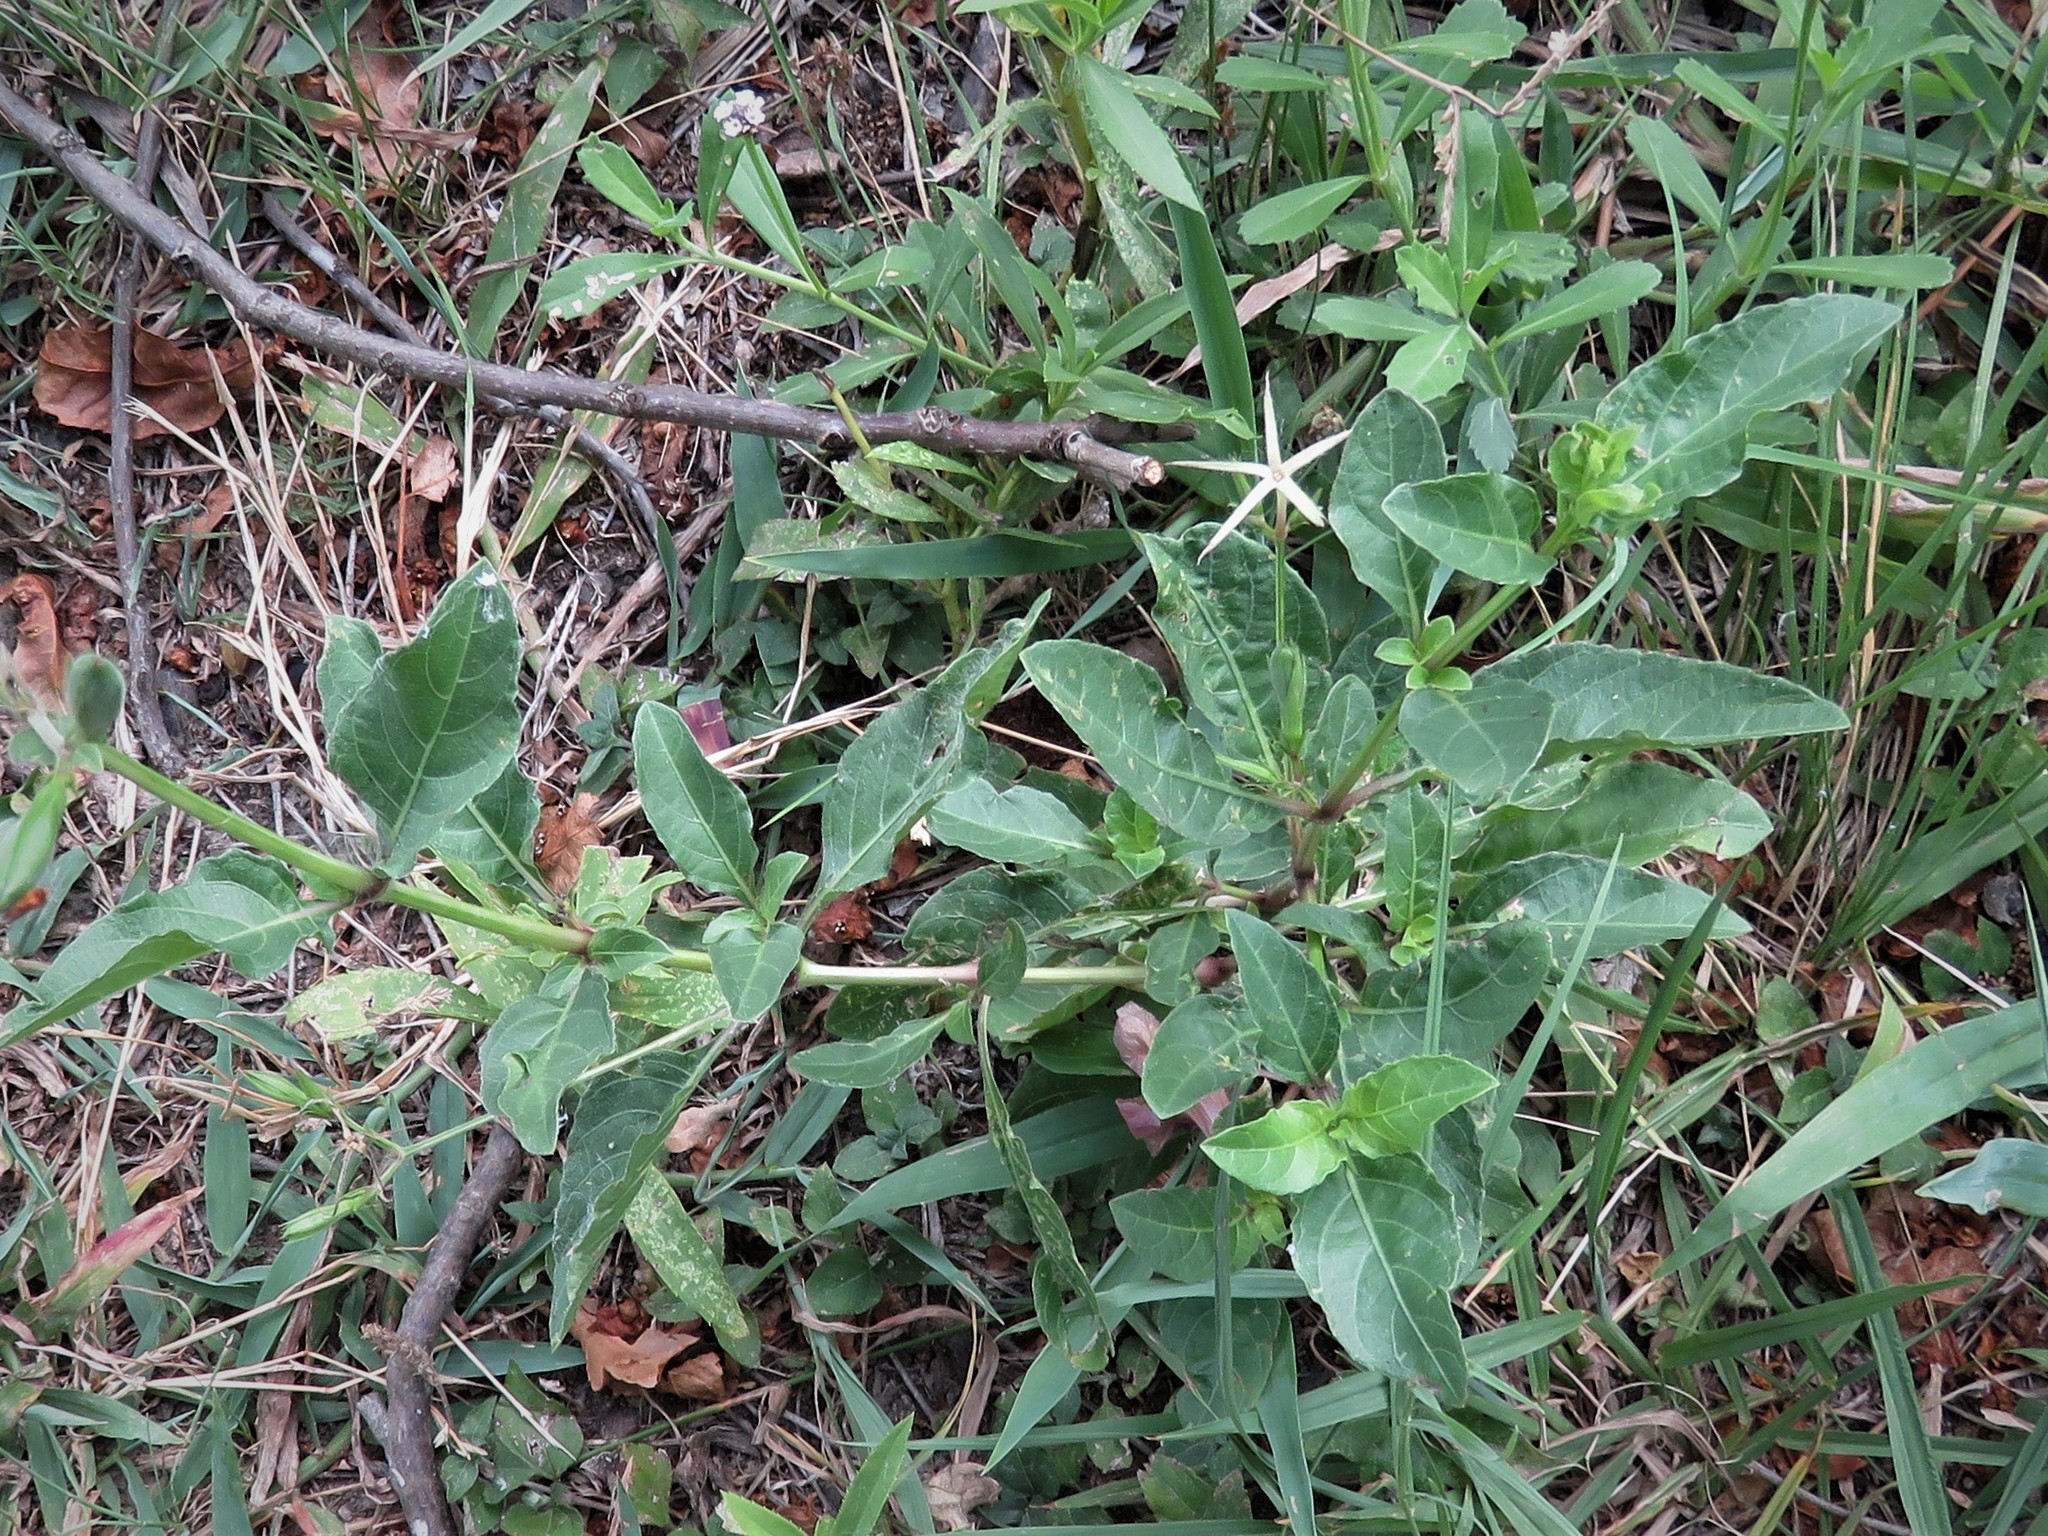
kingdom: Plantae
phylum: Tracheophyta
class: Magnoliopsida
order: Lamiales
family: Acanthaceae
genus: Ruellia
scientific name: Ruellia ciliatiflora
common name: Hairyflower wild petunia
